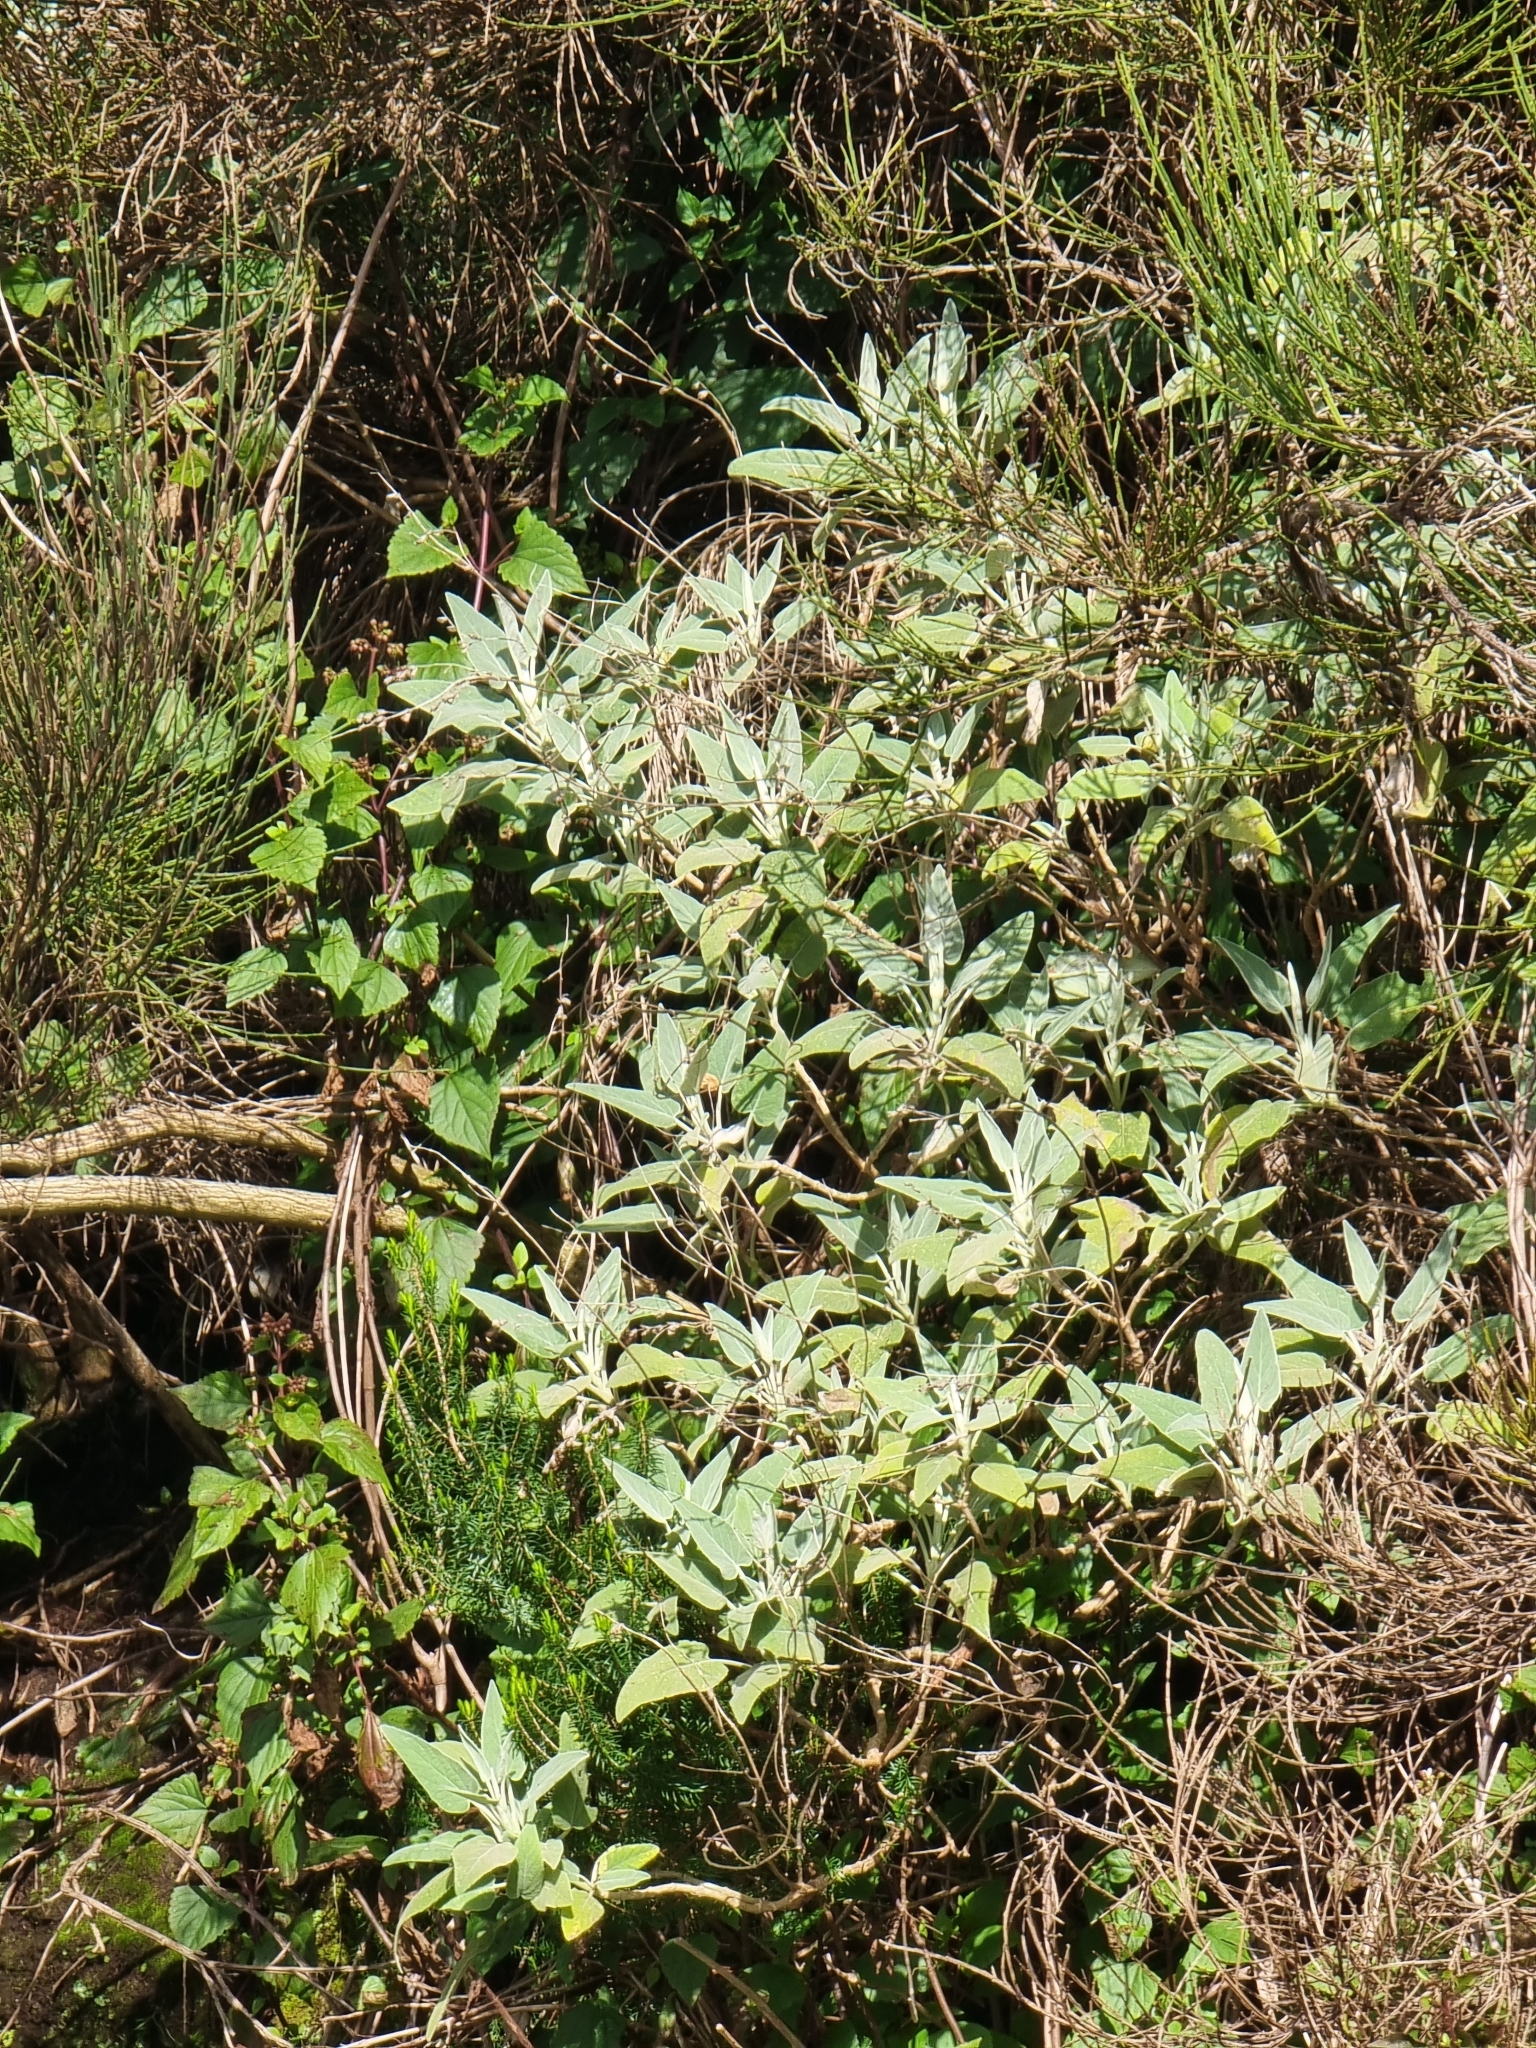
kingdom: Plantae
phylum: Tracheophyta
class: Magnoliopsida
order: Lamiales
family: Lamiaceae
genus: Sideritis
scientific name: Sideritis candicans
